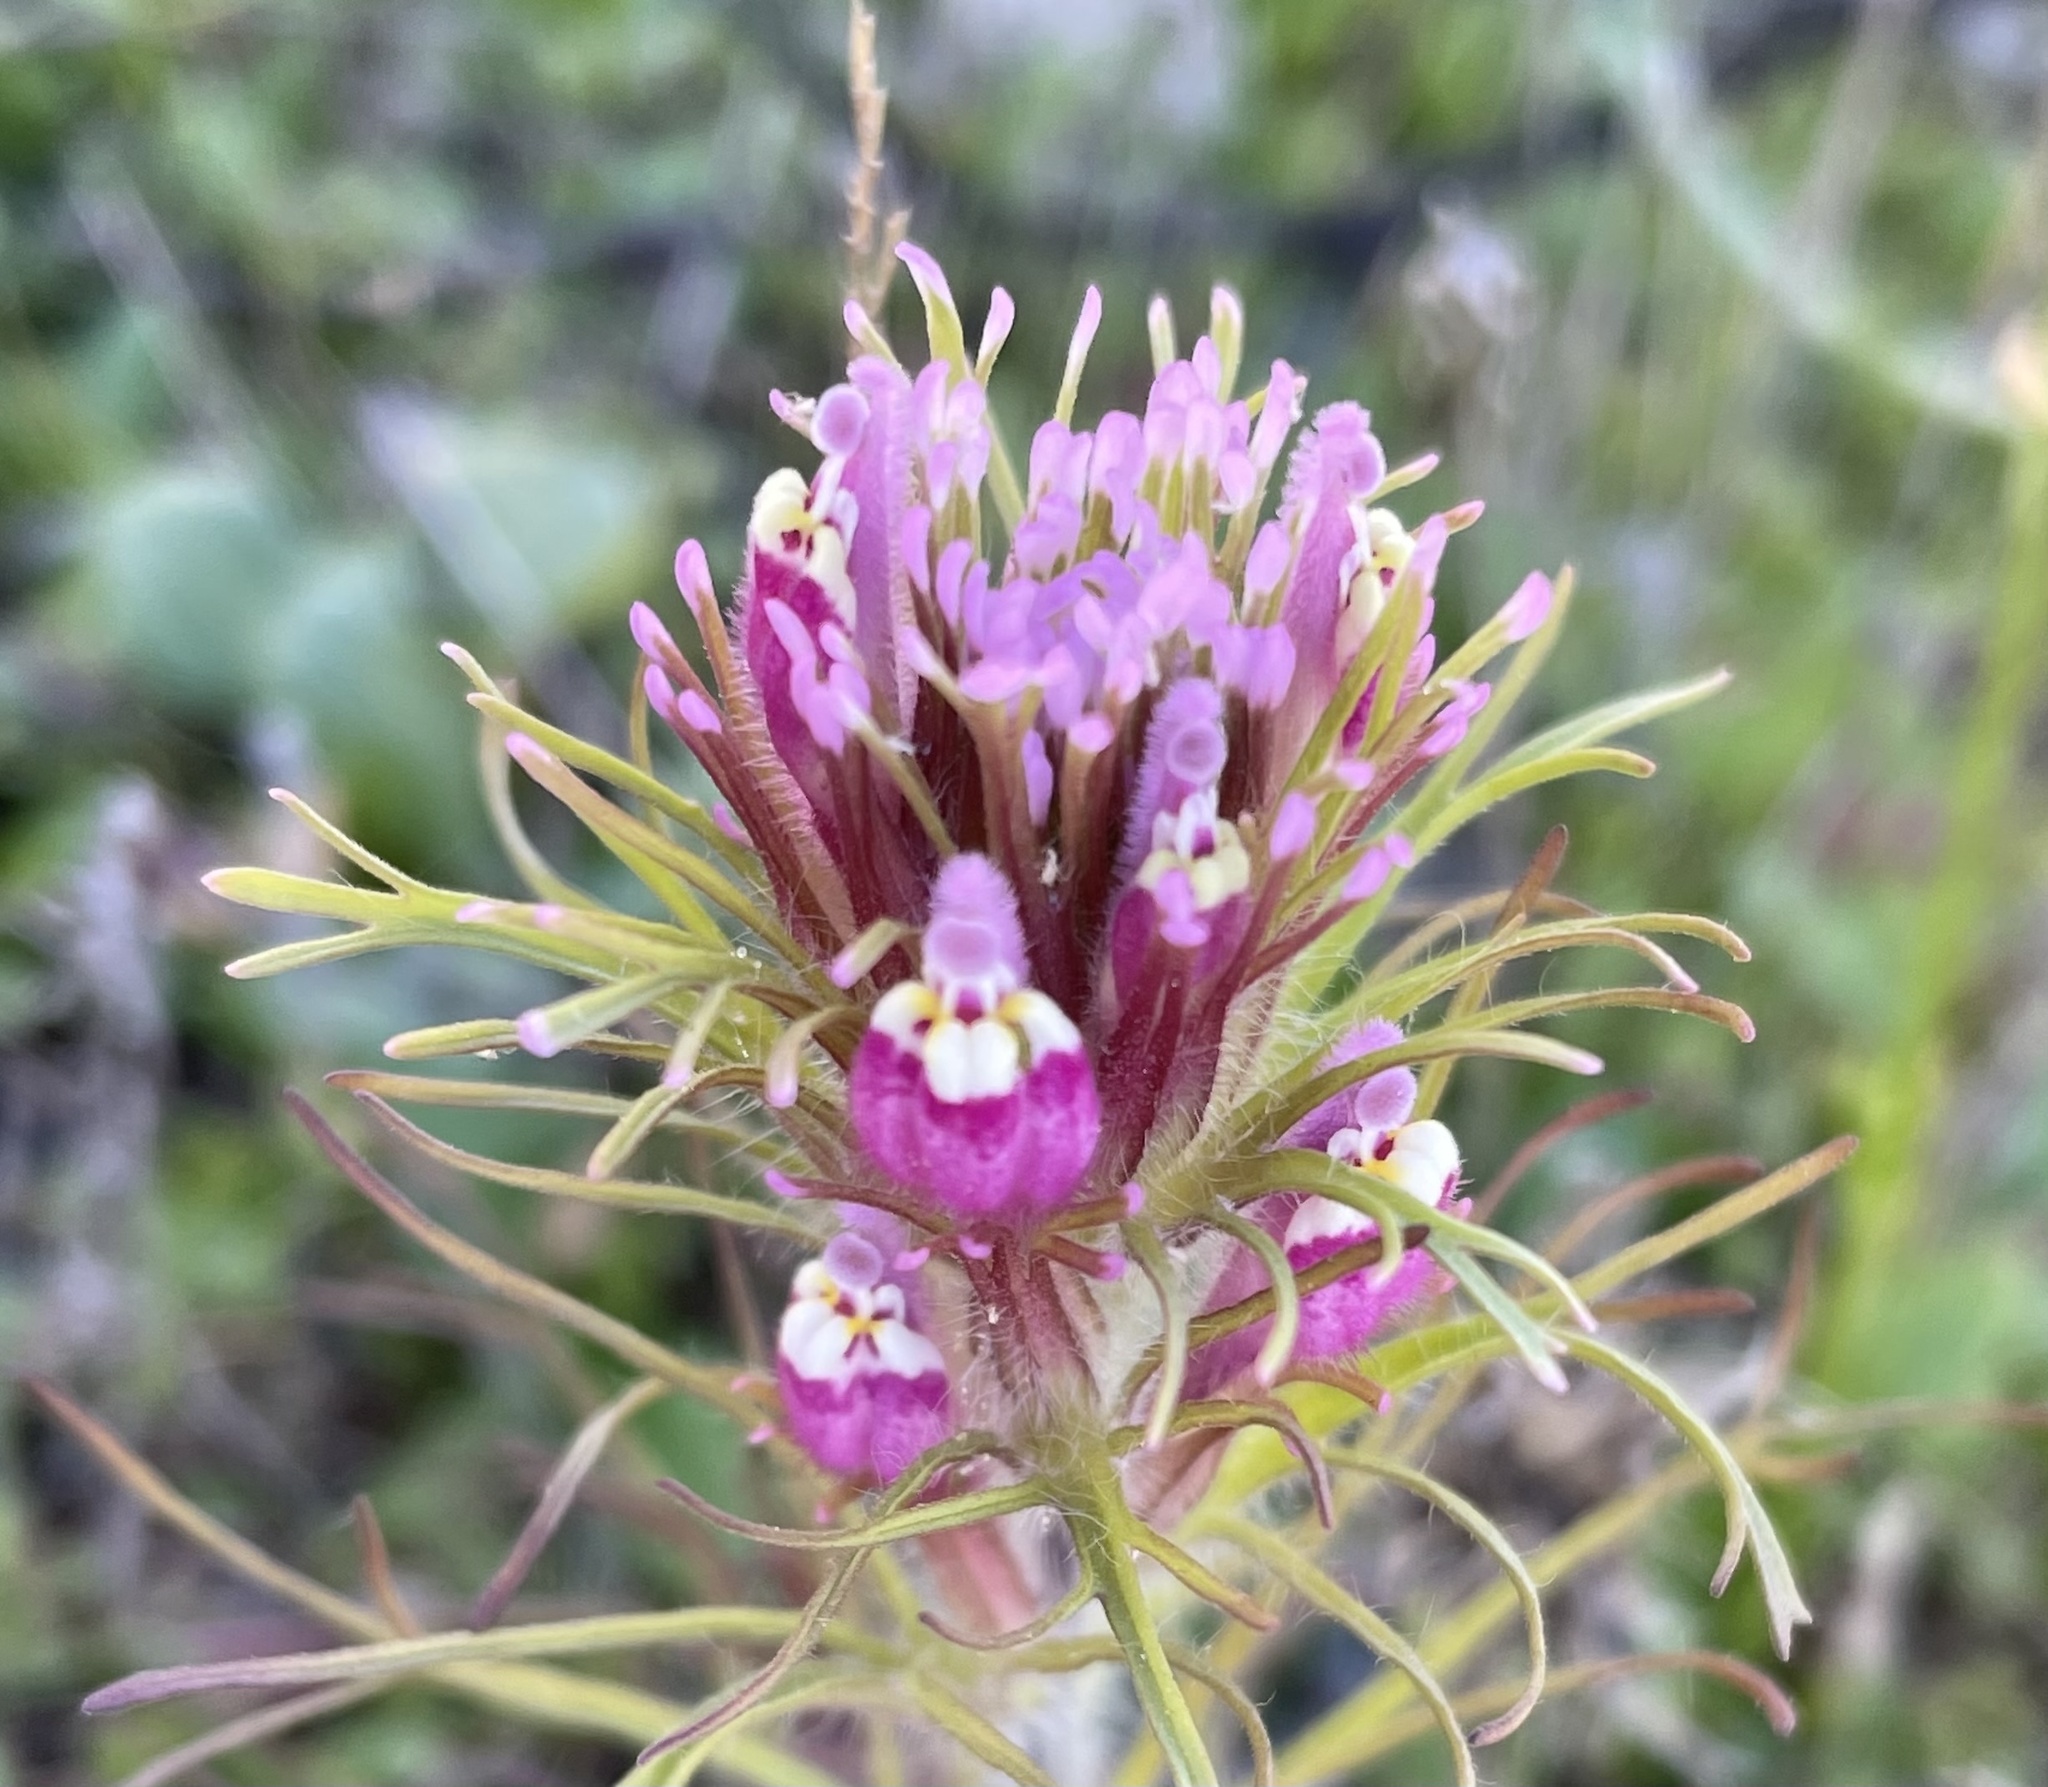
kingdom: Plantae
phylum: Tracheophyta
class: Magnoliopsida
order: Lamiales
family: Orobanchaceae
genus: Castilleja
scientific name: Castilleja exserta
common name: Purple owl-clover
